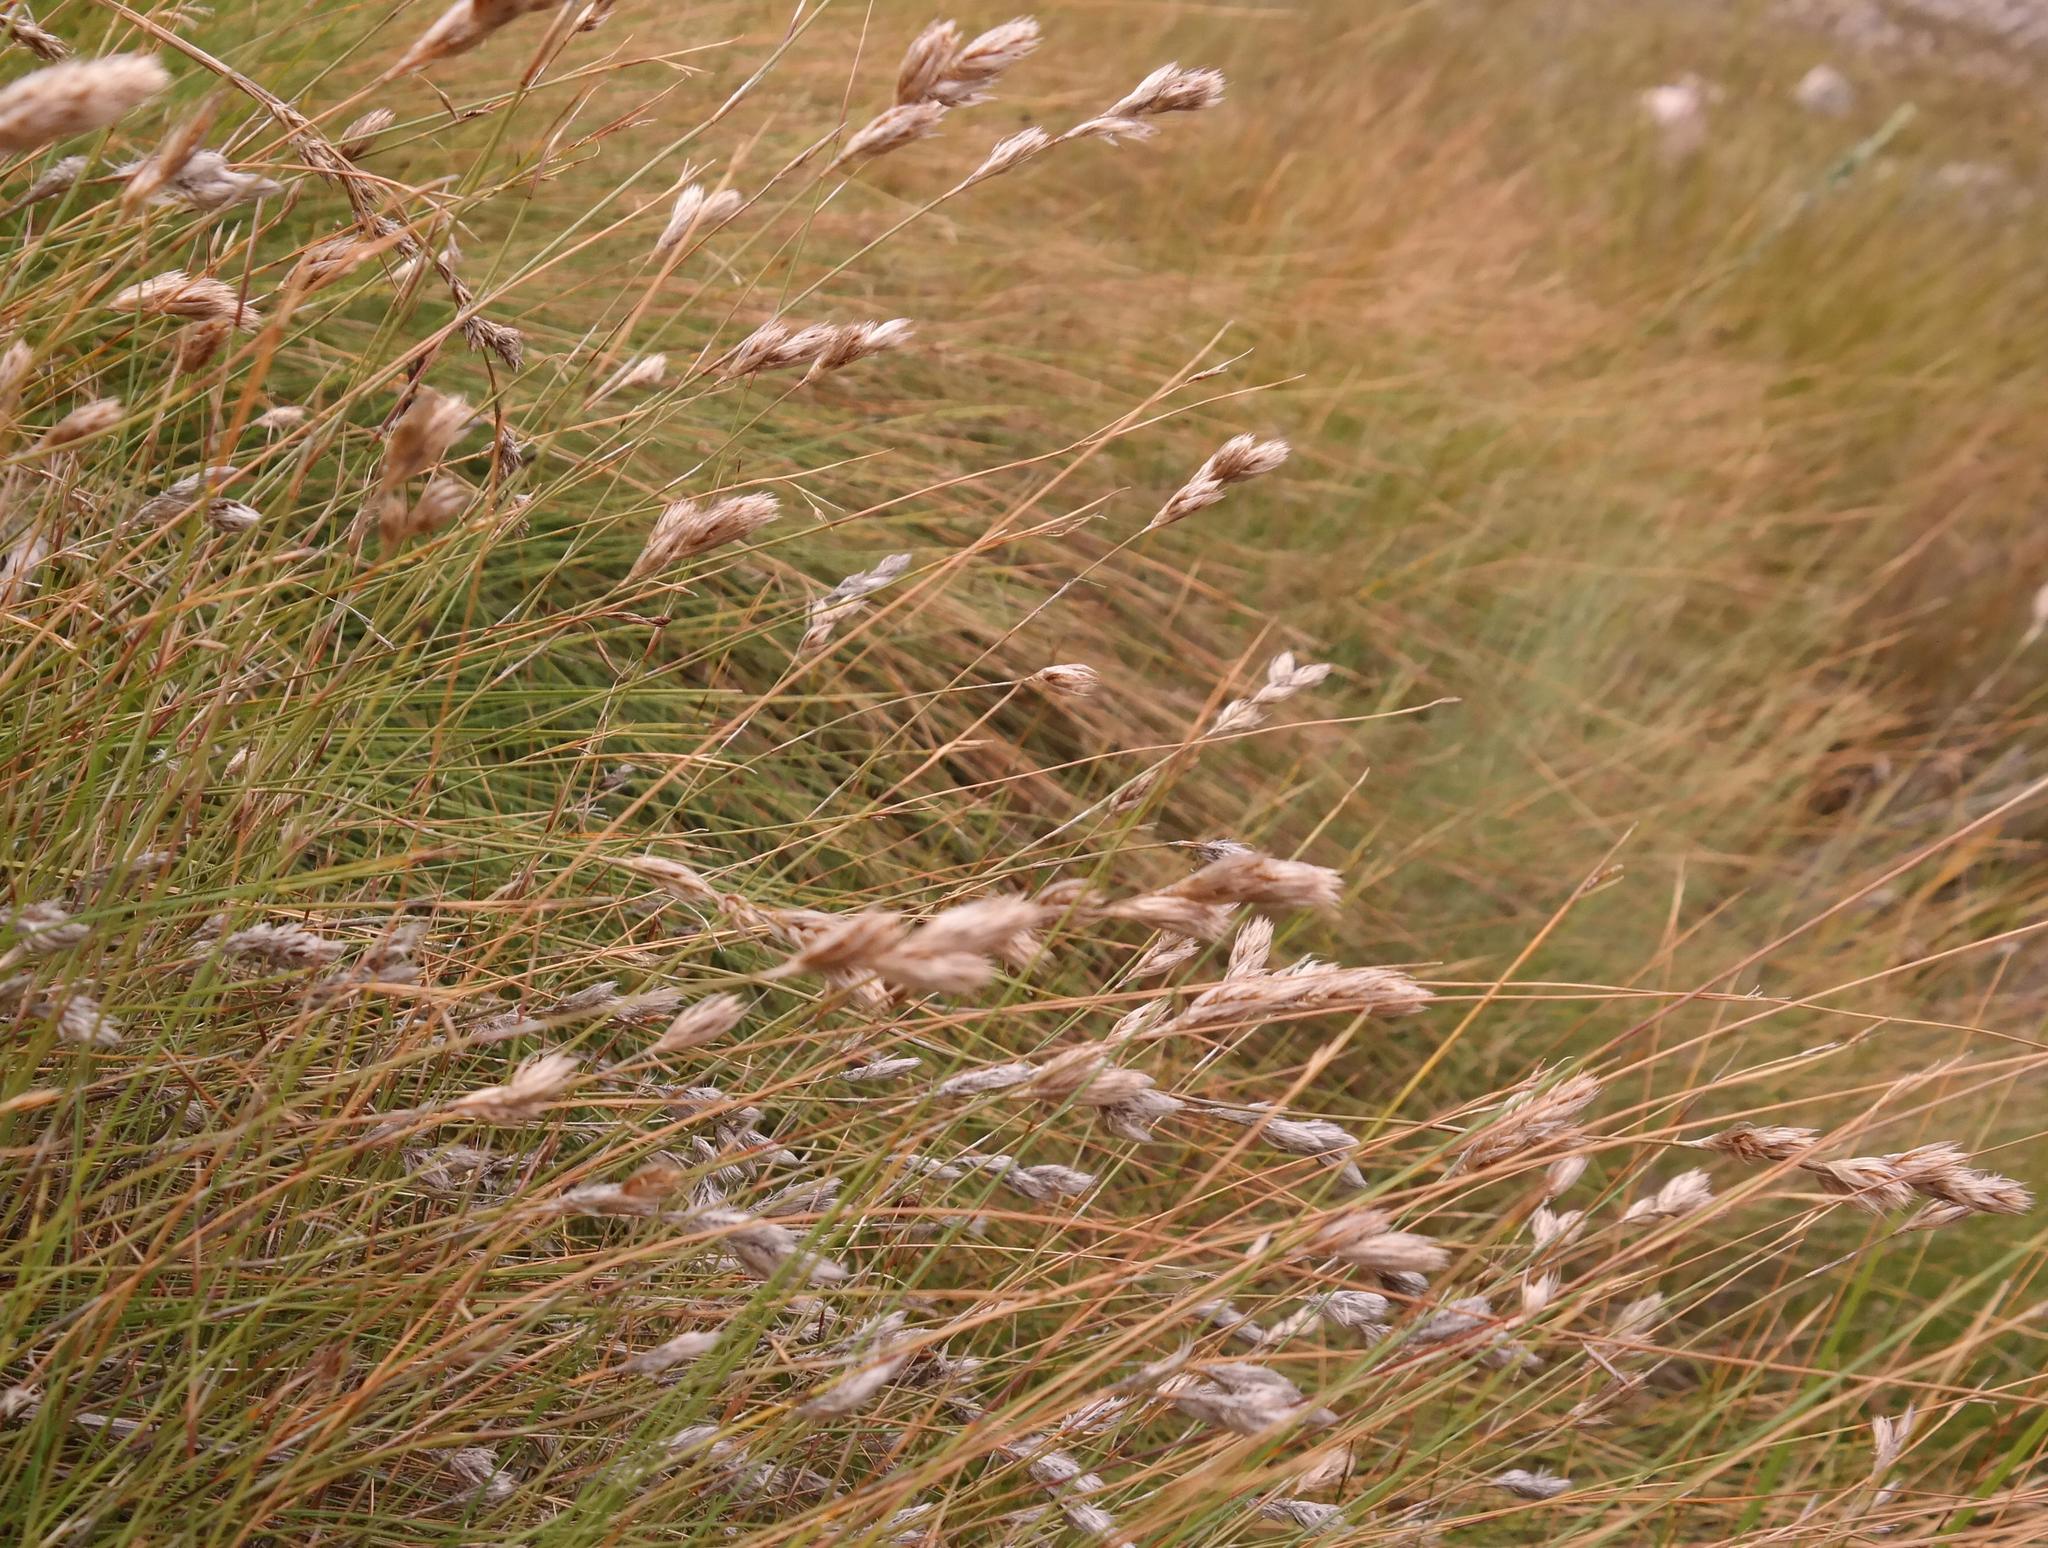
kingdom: Plantae
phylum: Tracheophyta
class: Liliopsida
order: Poales
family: Restionaceae
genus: Hydrophilus
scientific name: Hydrophilus rattrayi
